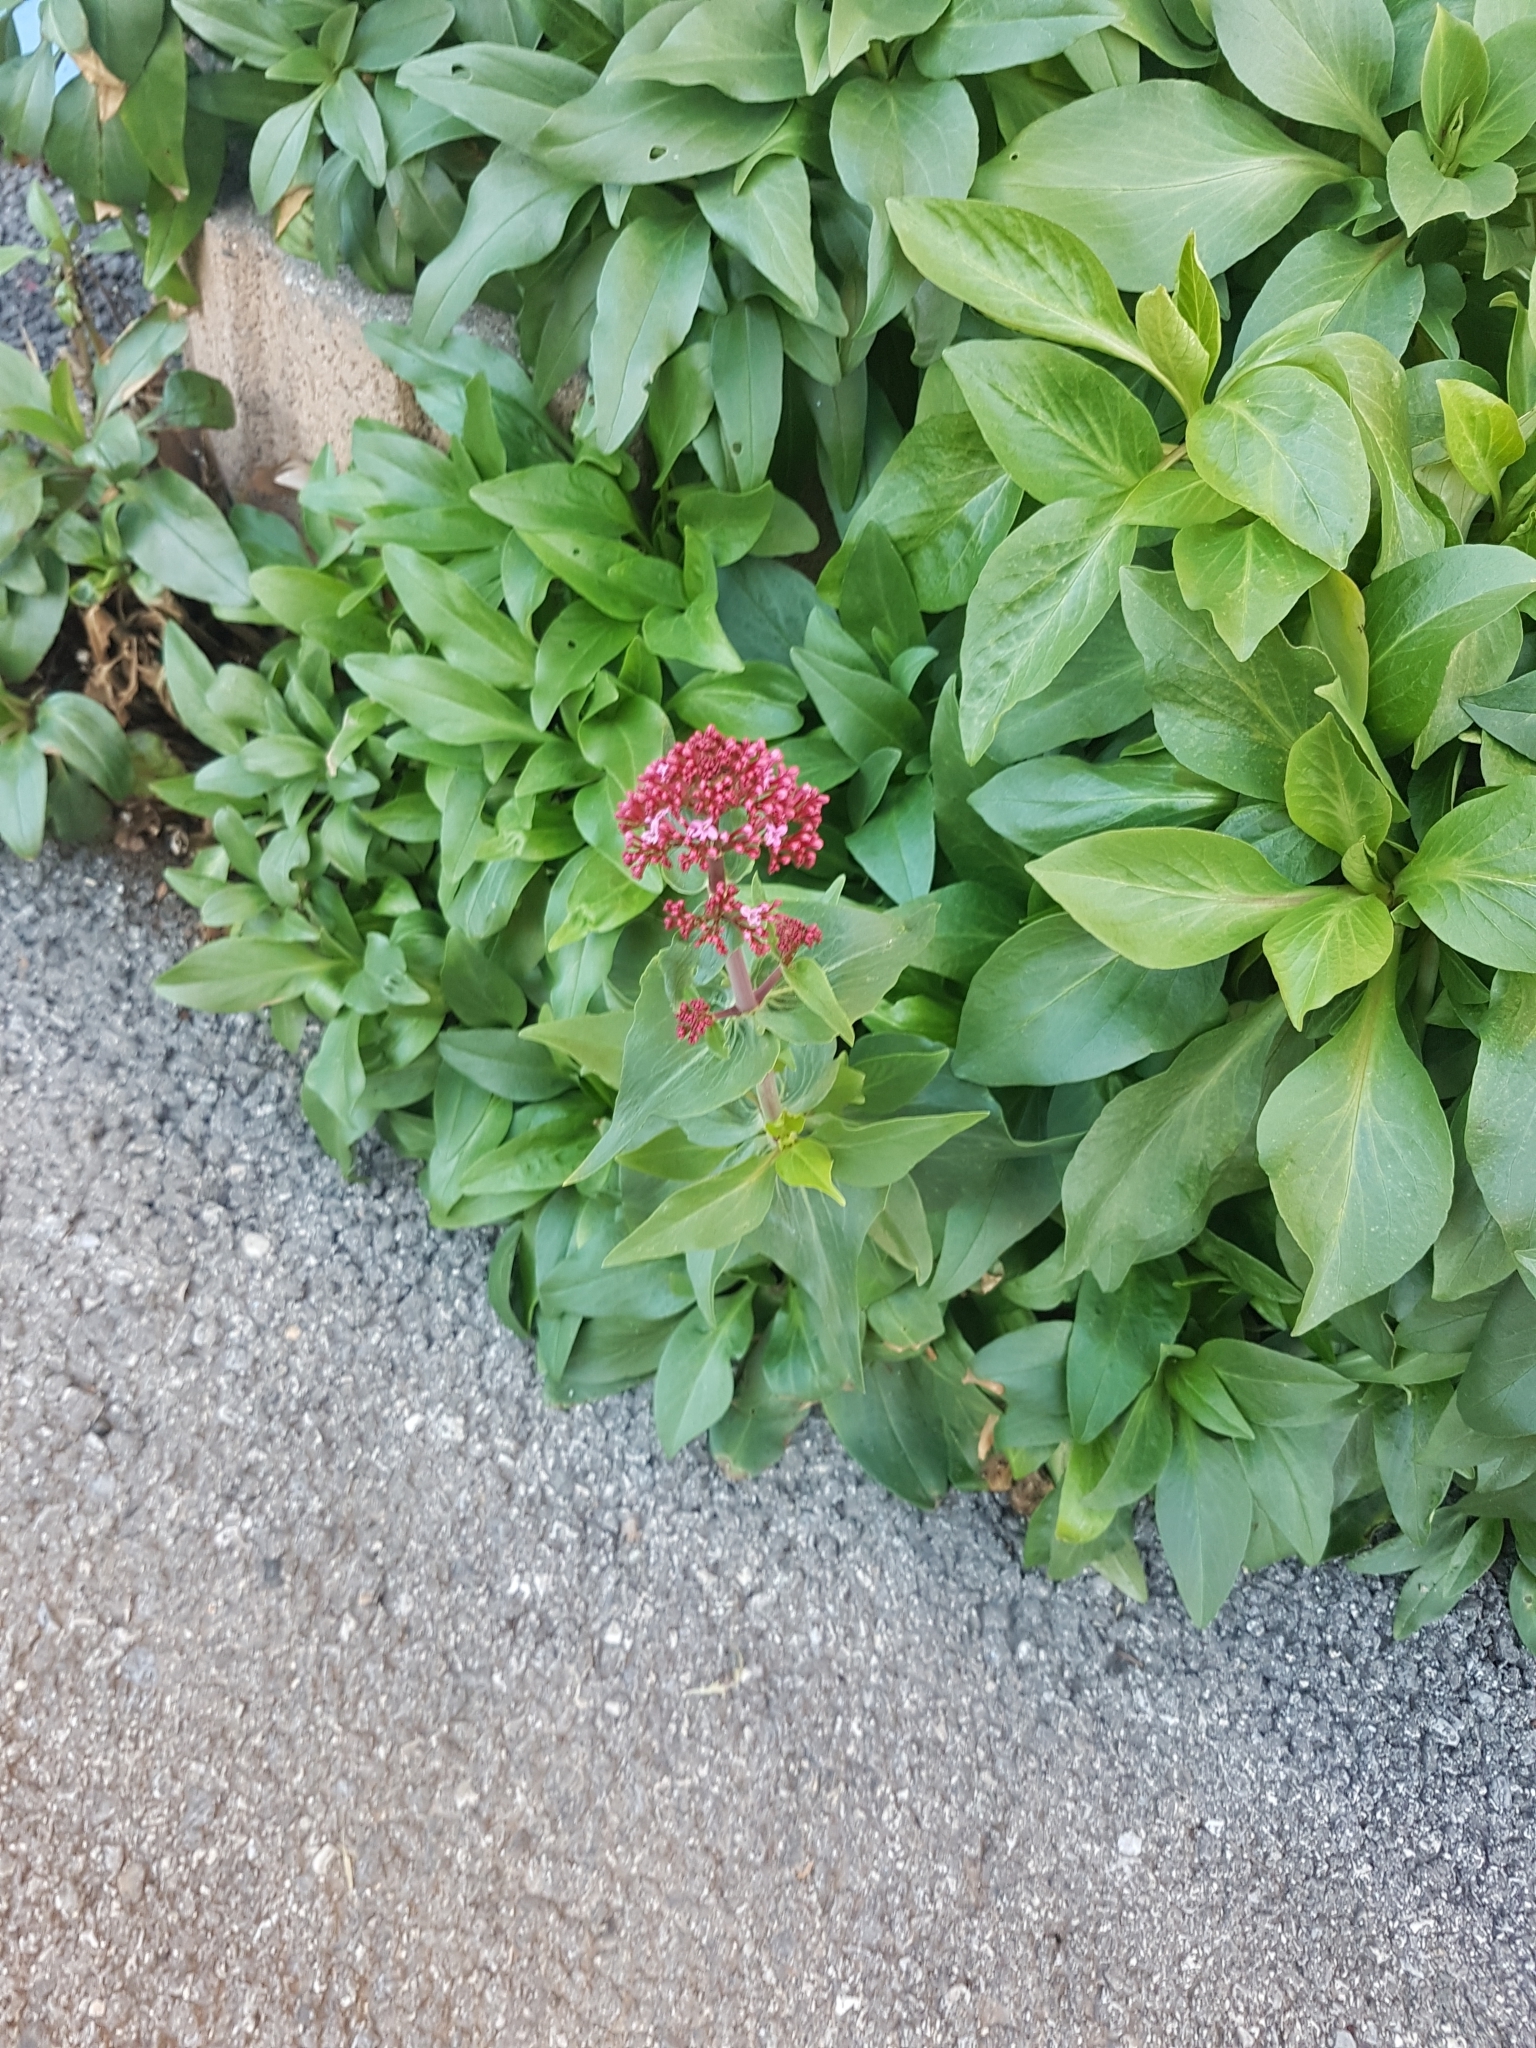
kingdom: Plantae
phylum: Tracheophyta
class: Magnoliopsida
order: Dipsacales
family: Caprifoliaceae
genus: Centranthus
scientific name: Centranthus ruber
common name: Red valerian
